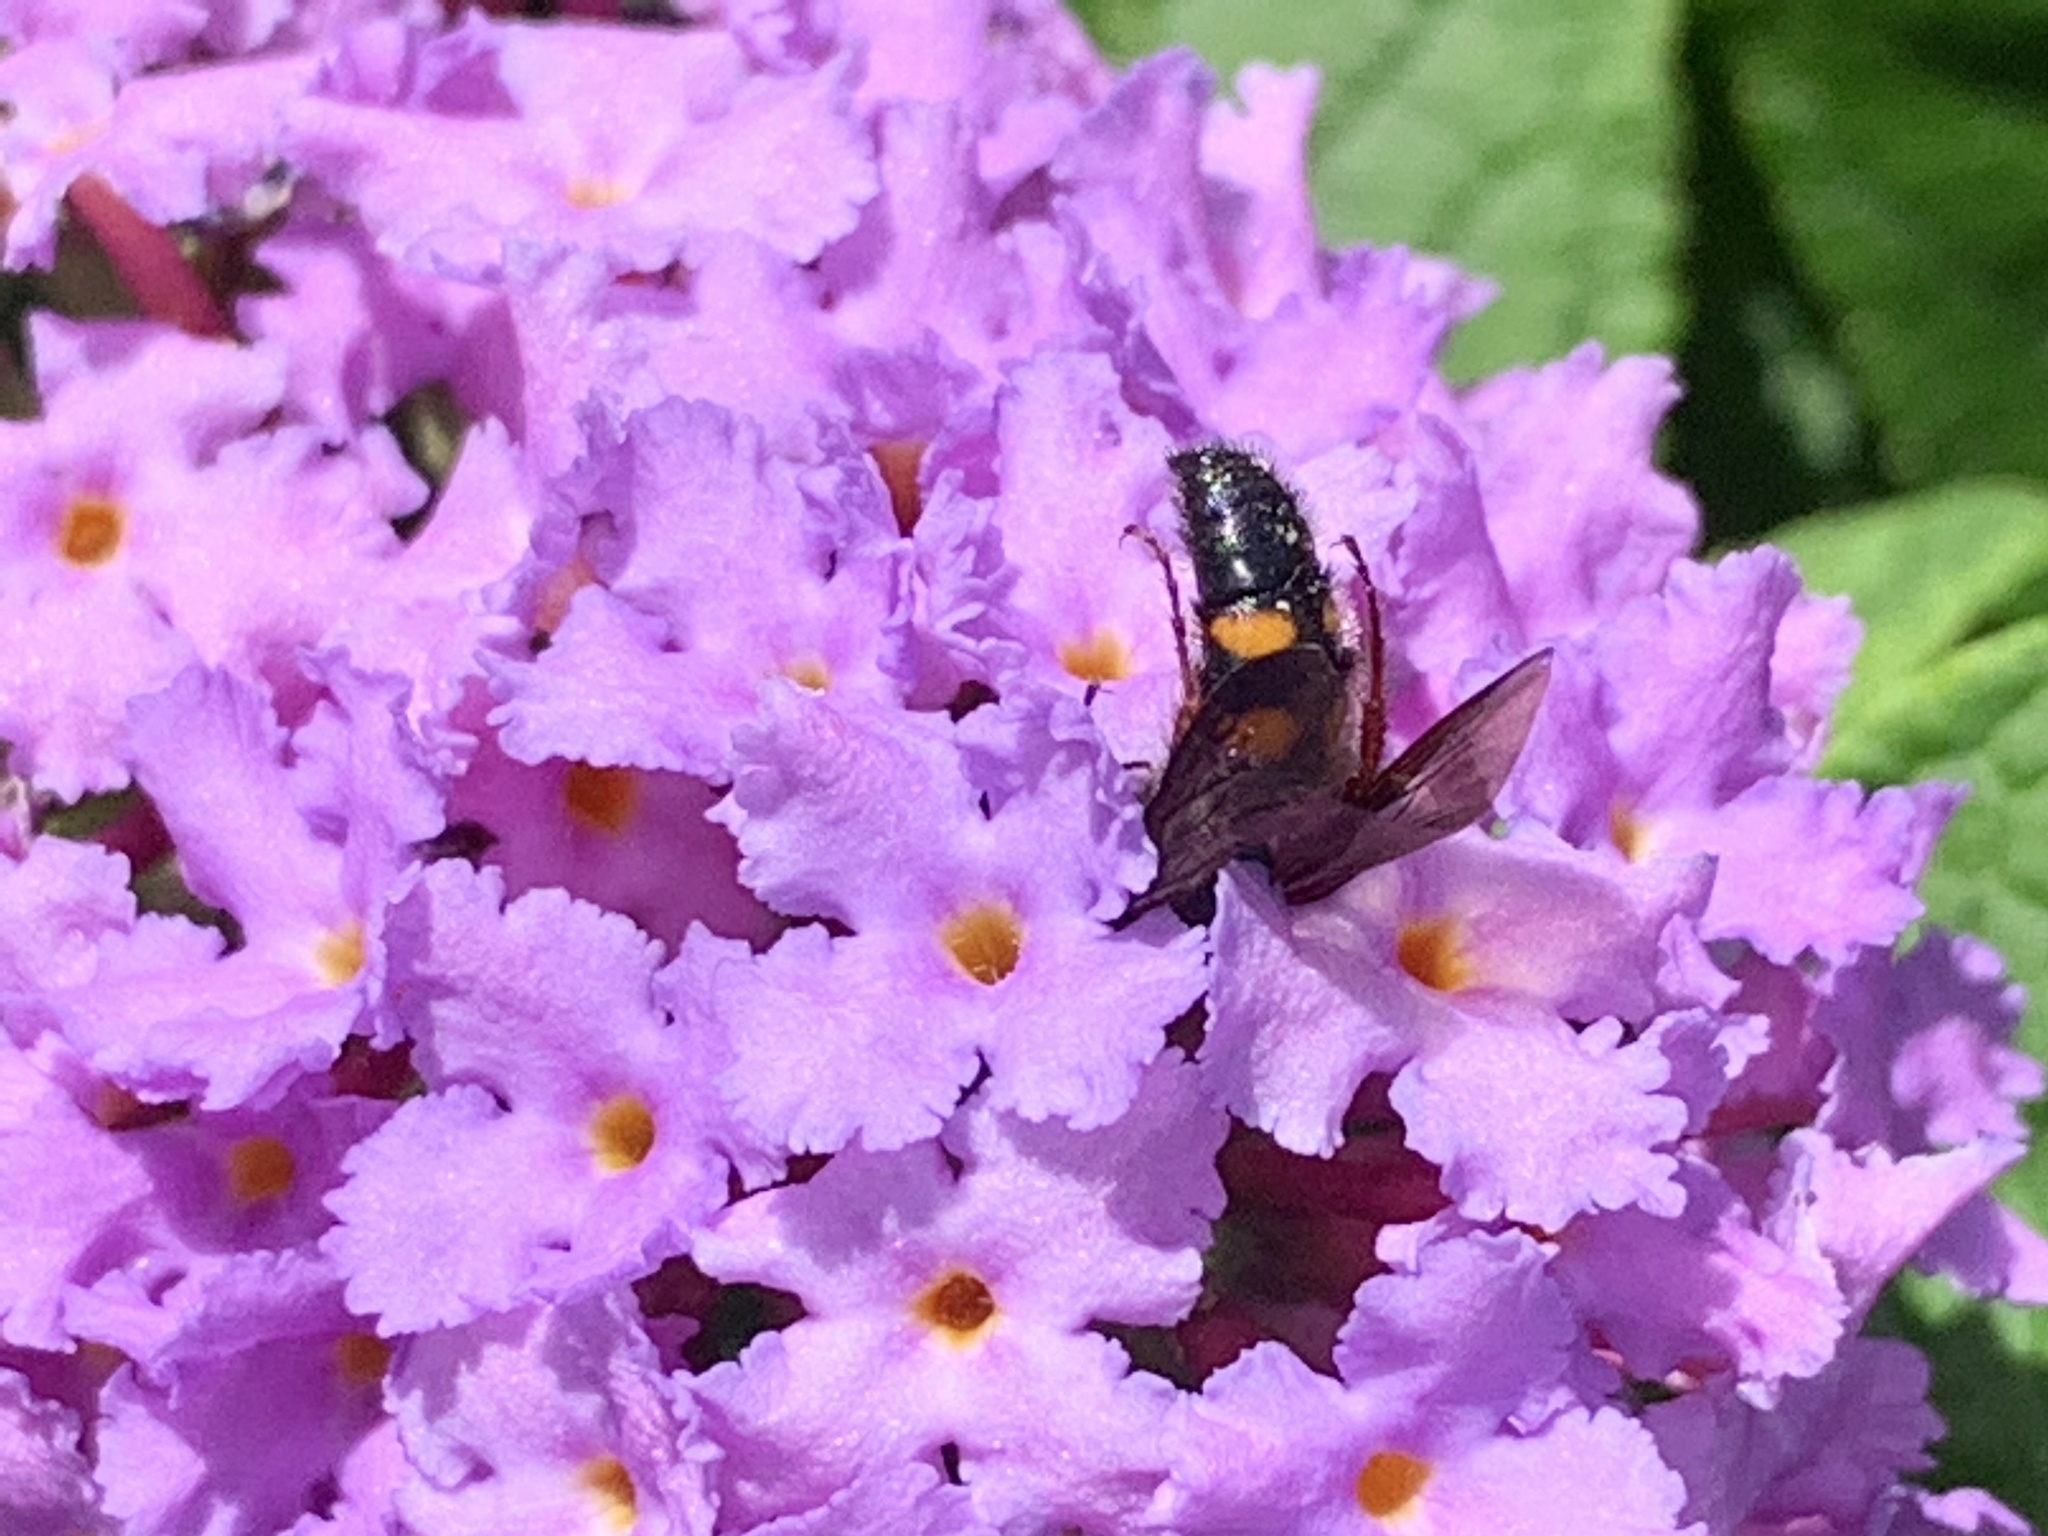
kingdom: Animalia
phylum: Arthropoda
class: Insecta
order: Hymenoptera
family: Scoliidae
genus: Scolia
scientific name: Scolia nobilitata
